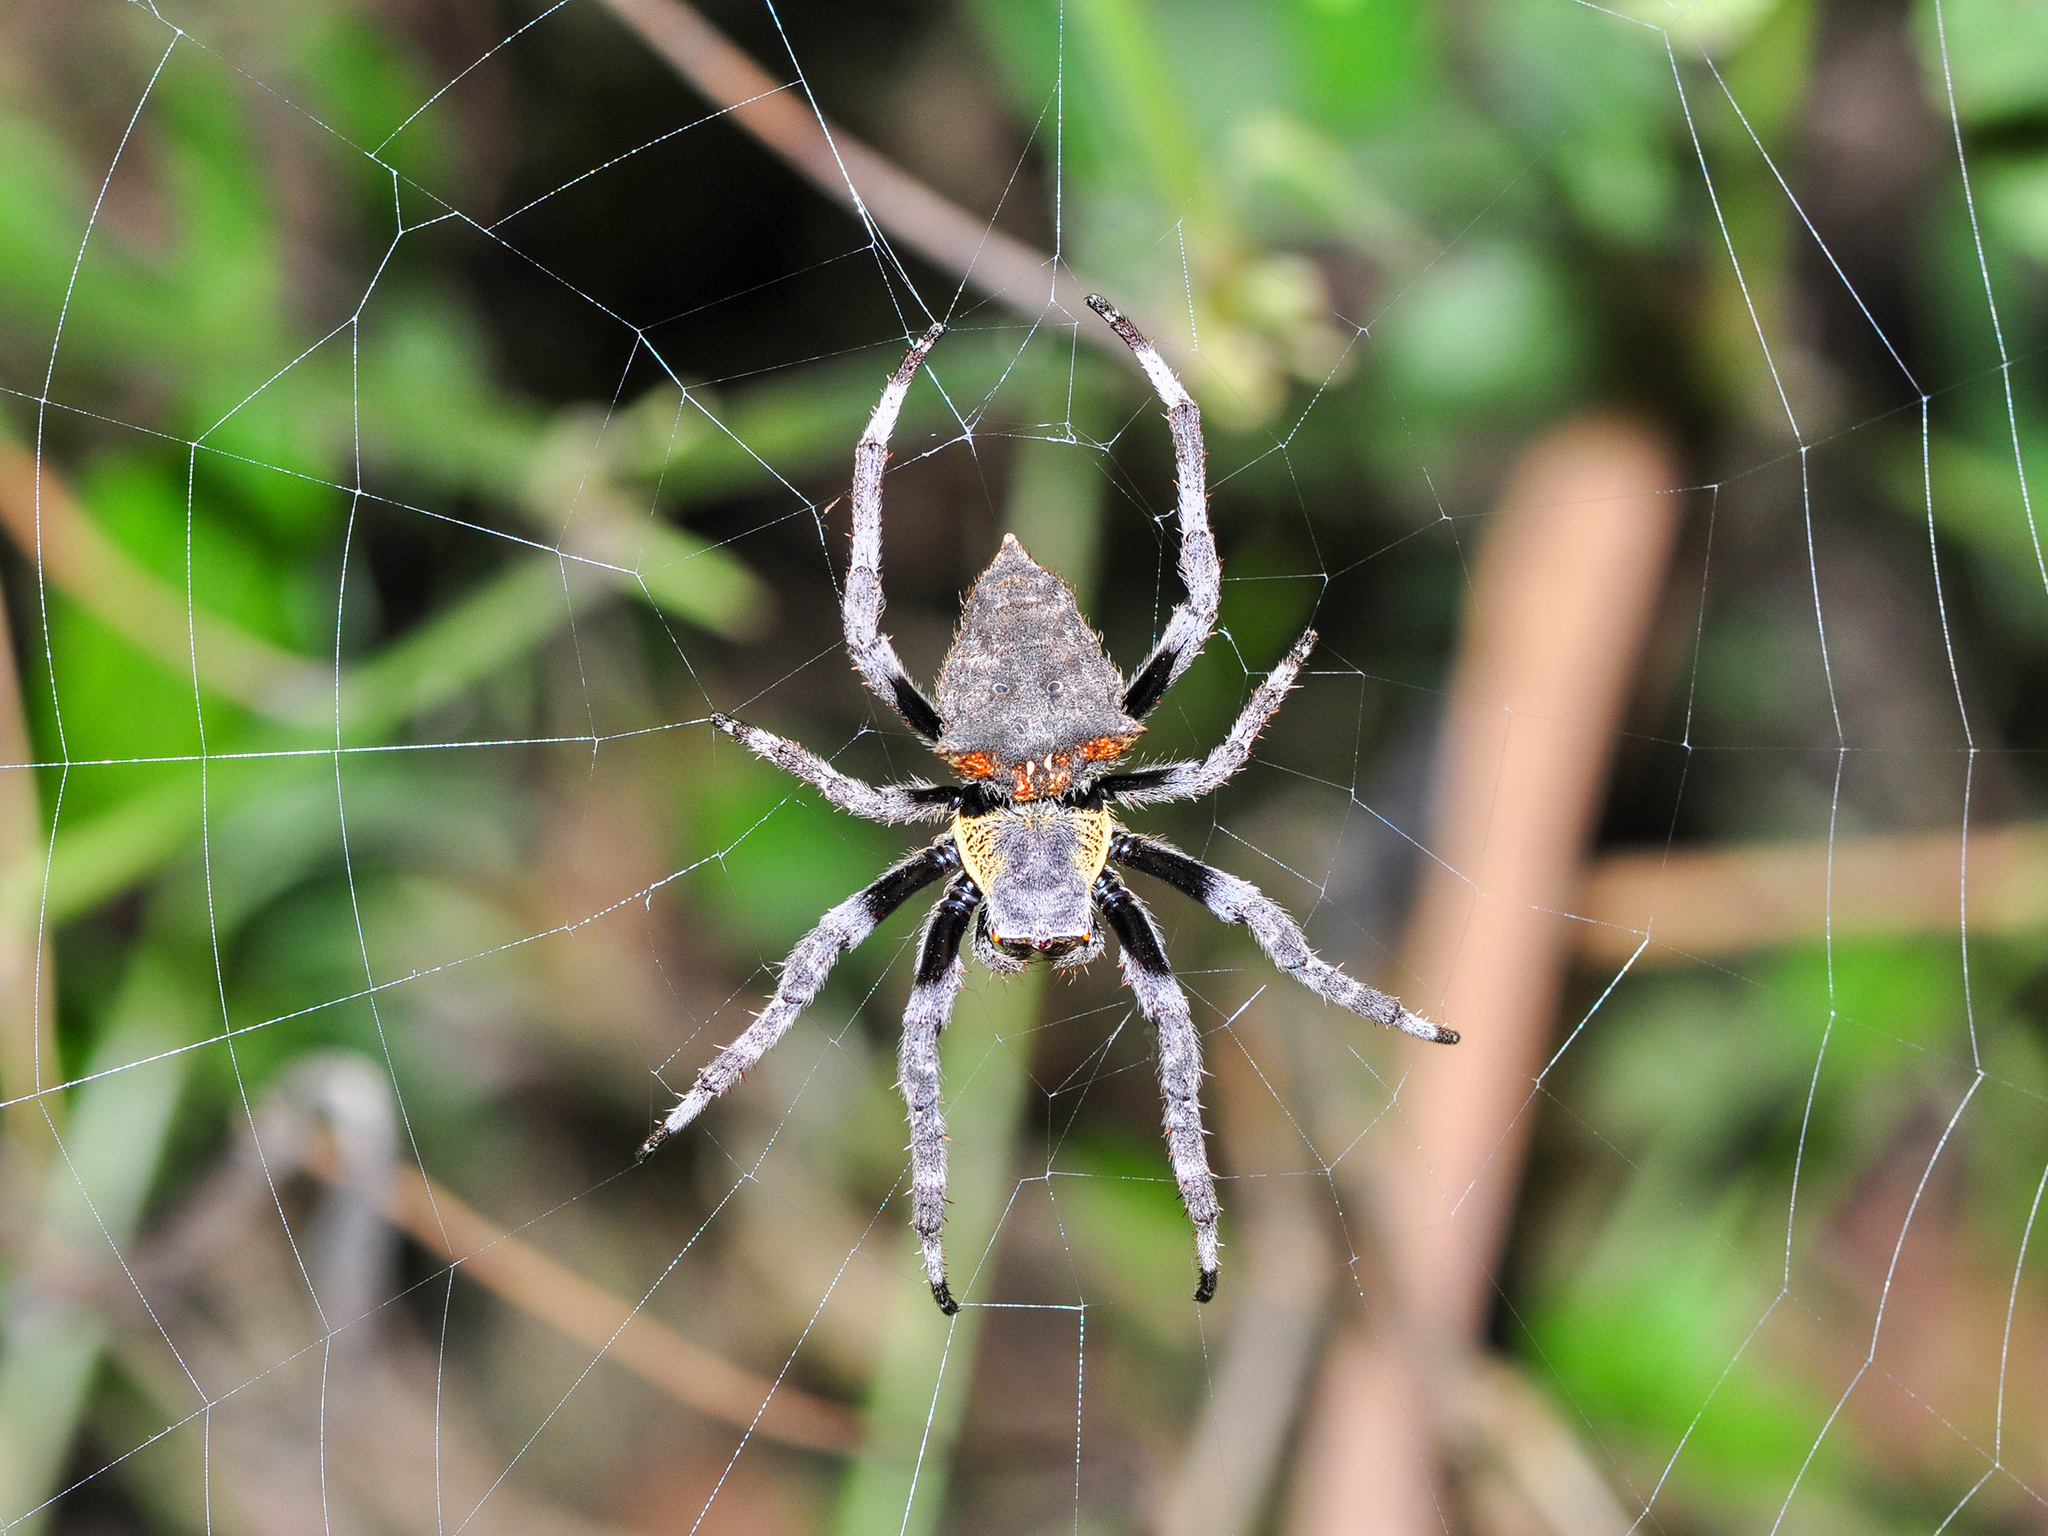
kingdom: Animalia
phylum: Arthropoda
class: Arachnida
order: Araneae
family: Araneidae
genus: Parawixia
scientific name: Parawixia dehaani
